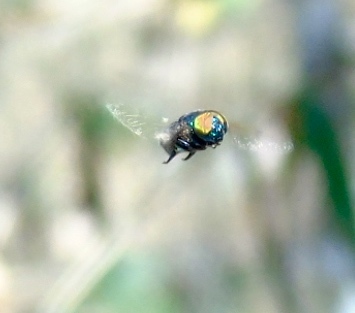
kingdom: Animalia
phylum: Arthropoda
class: Insecta
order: Diptera
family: Syrphidae
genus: Ornidia
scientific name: Ornidia
